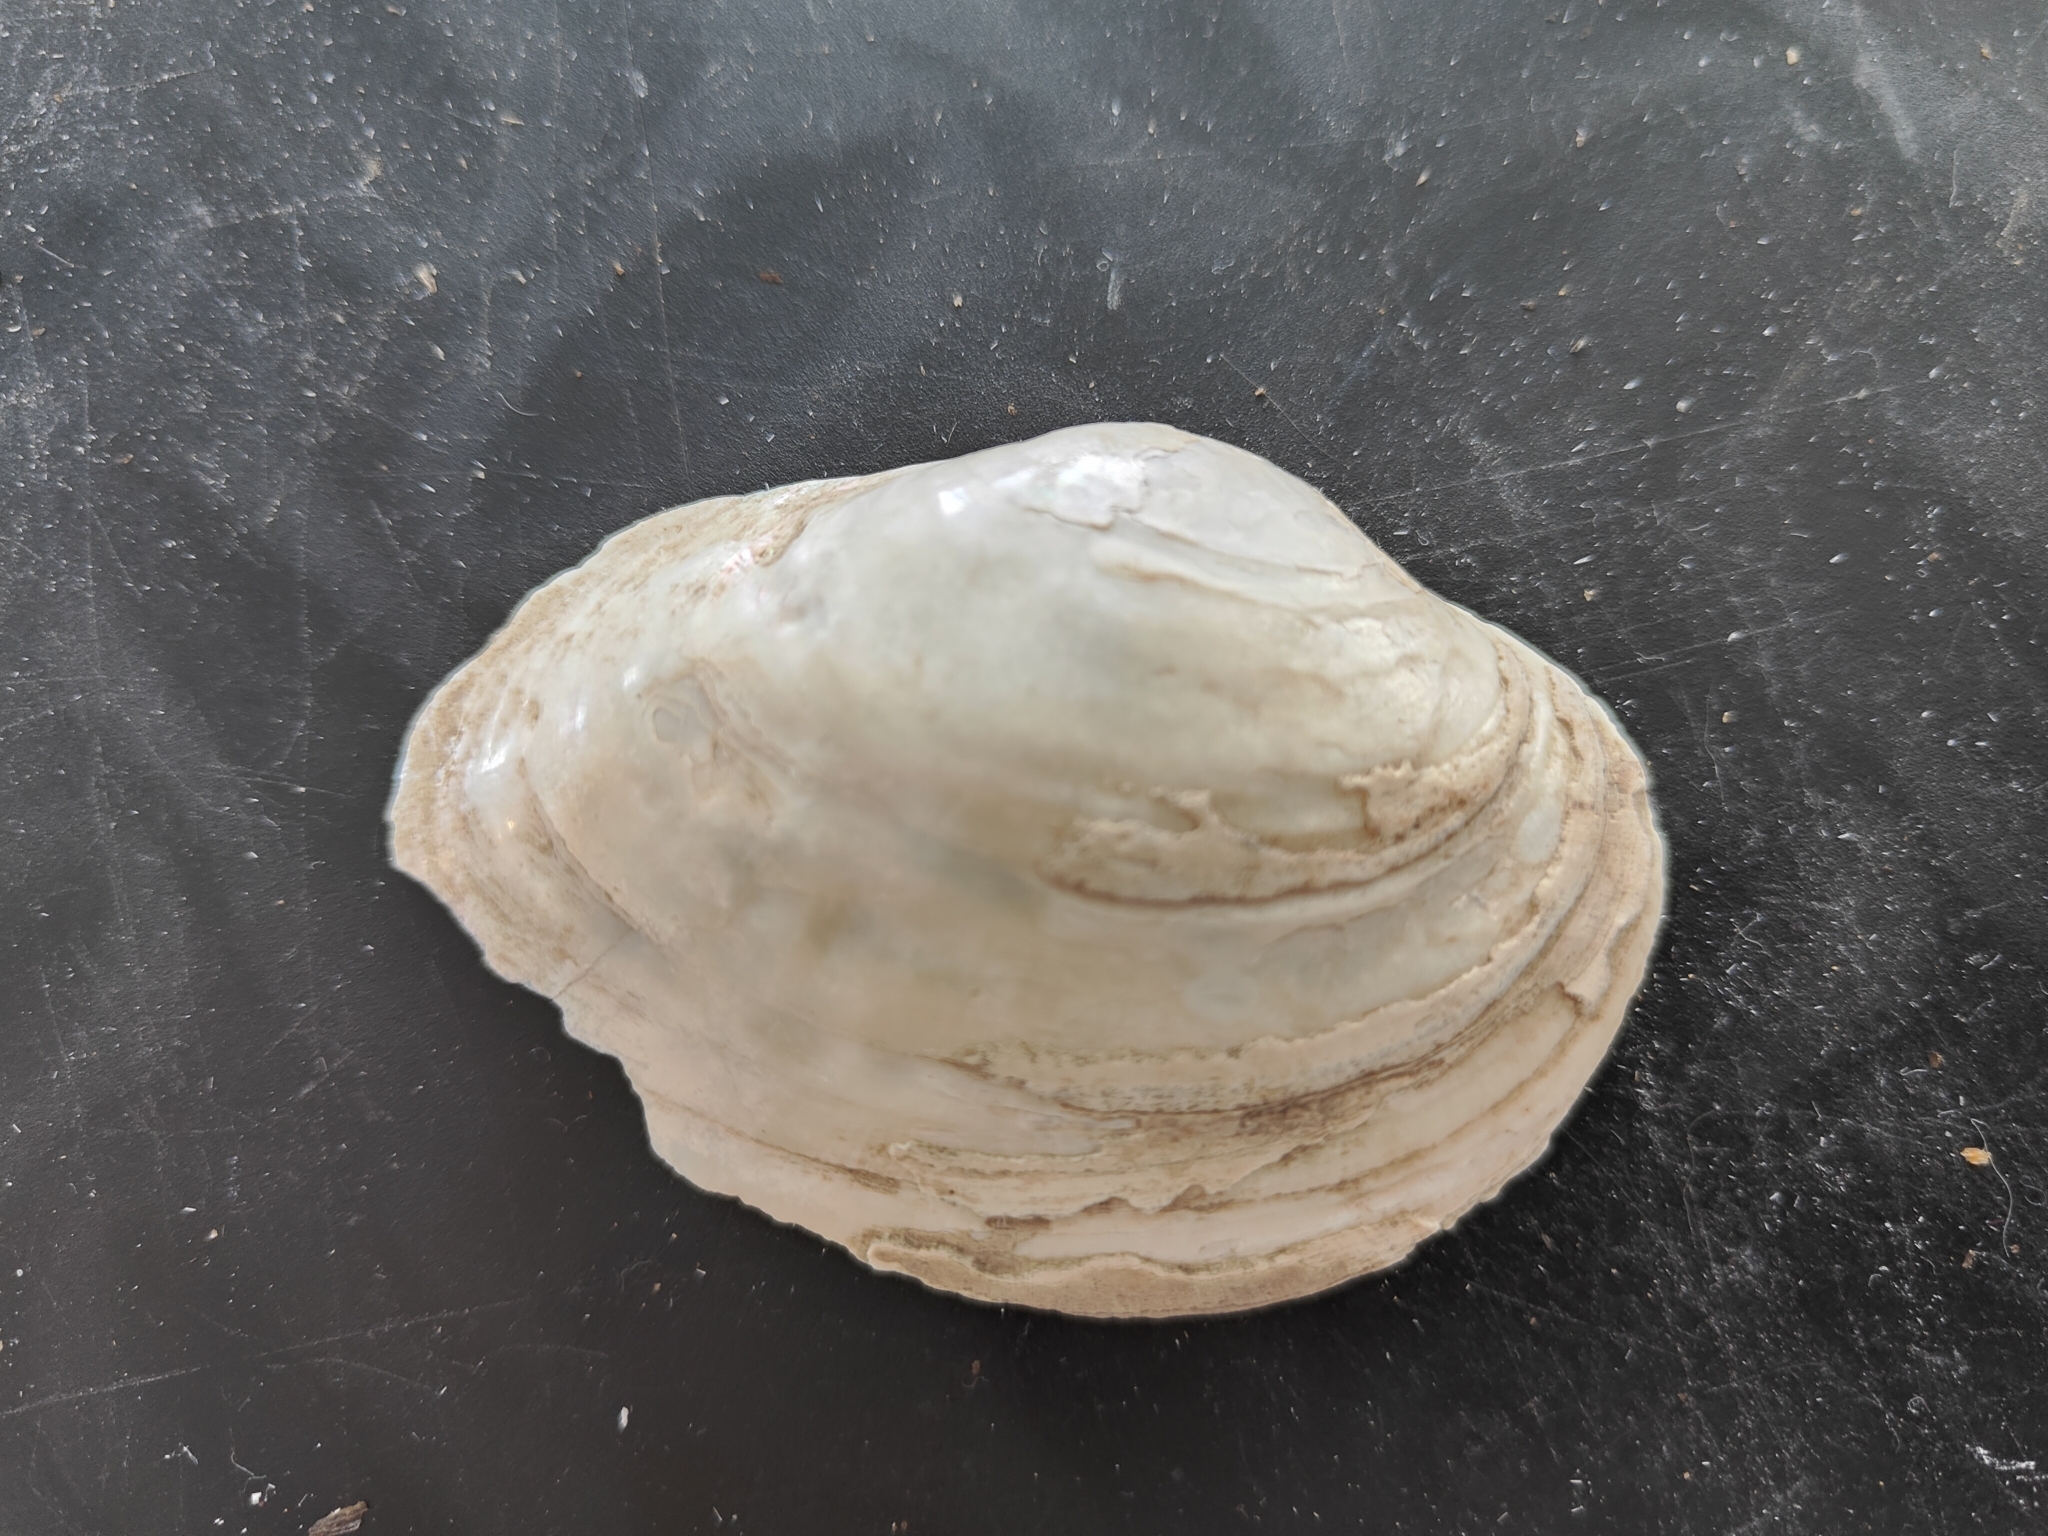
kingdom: Animalia
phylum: Mollusca
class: Bivalvia
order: Unionida
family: Unionidae
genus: Lampsilis
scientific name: Lampsilis cardium
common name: Plain pocketbook
